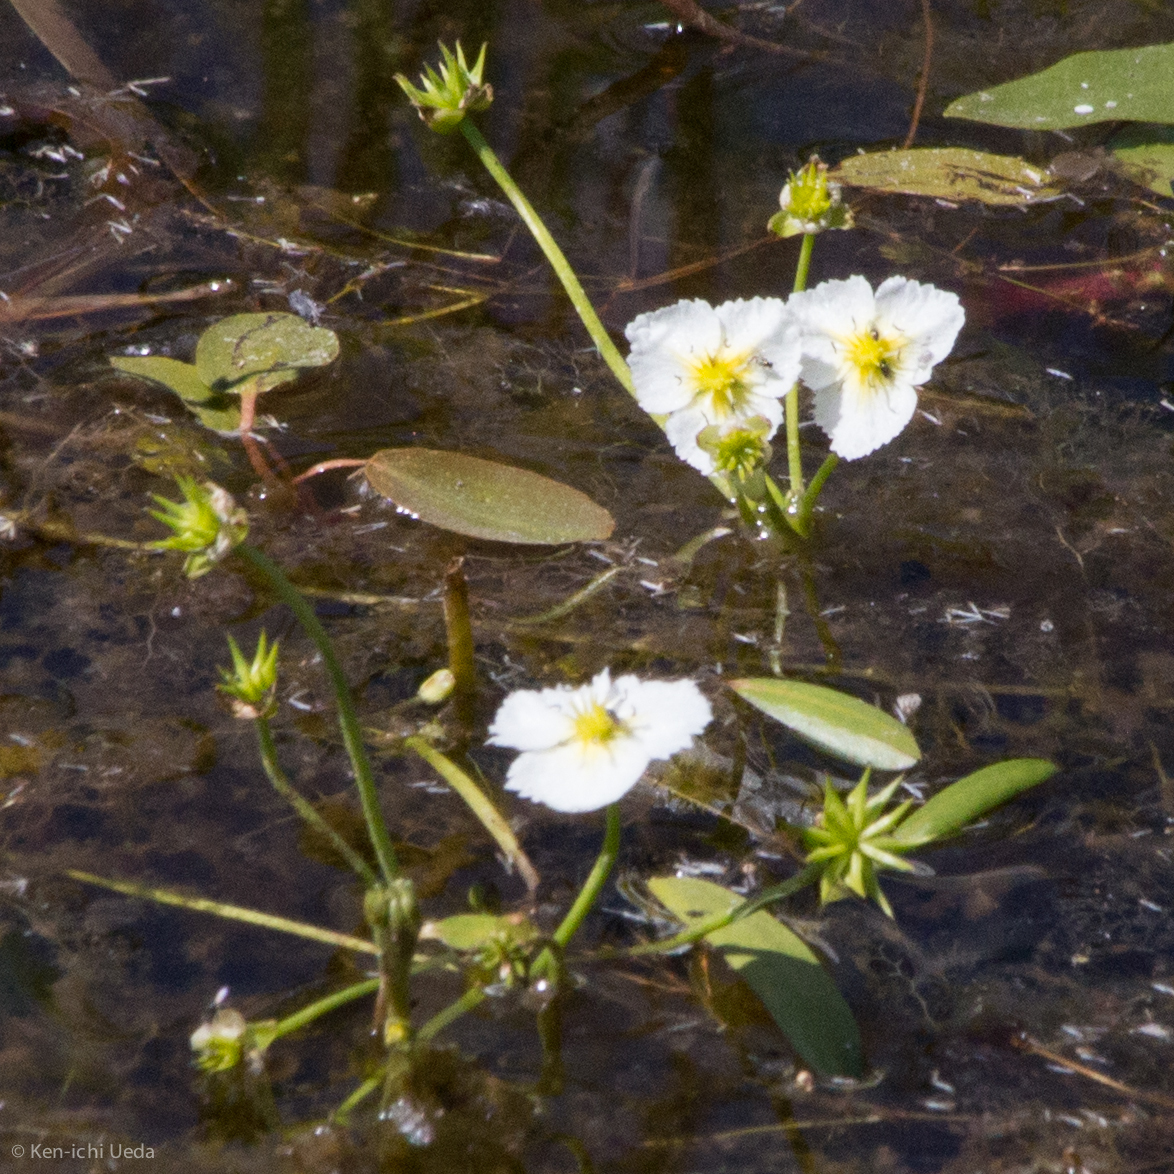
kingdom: Plantae
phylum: Tracheophyta
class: Liliopsida
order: Alismatales
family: Alismataceae
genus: Damasonium
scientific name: Damasonium californicum
